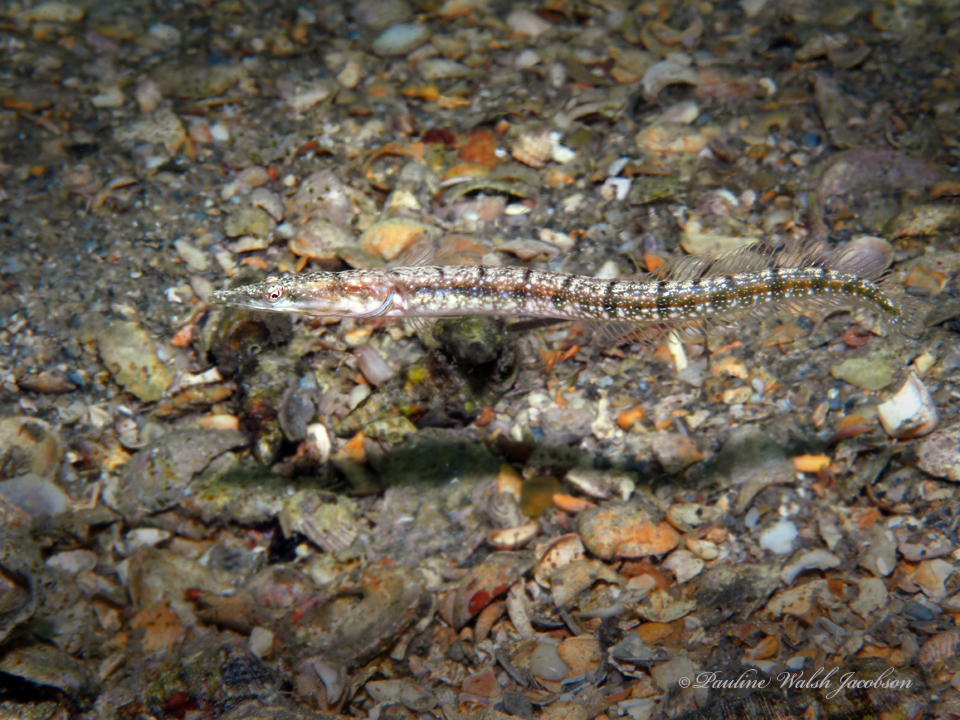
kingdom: Animalia
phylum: Chordata
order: Perciformes
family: Chaenopsidae
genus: Chaenopsis
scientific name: Chaenopsis ocellata
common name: Bluethroat pikeblenny
